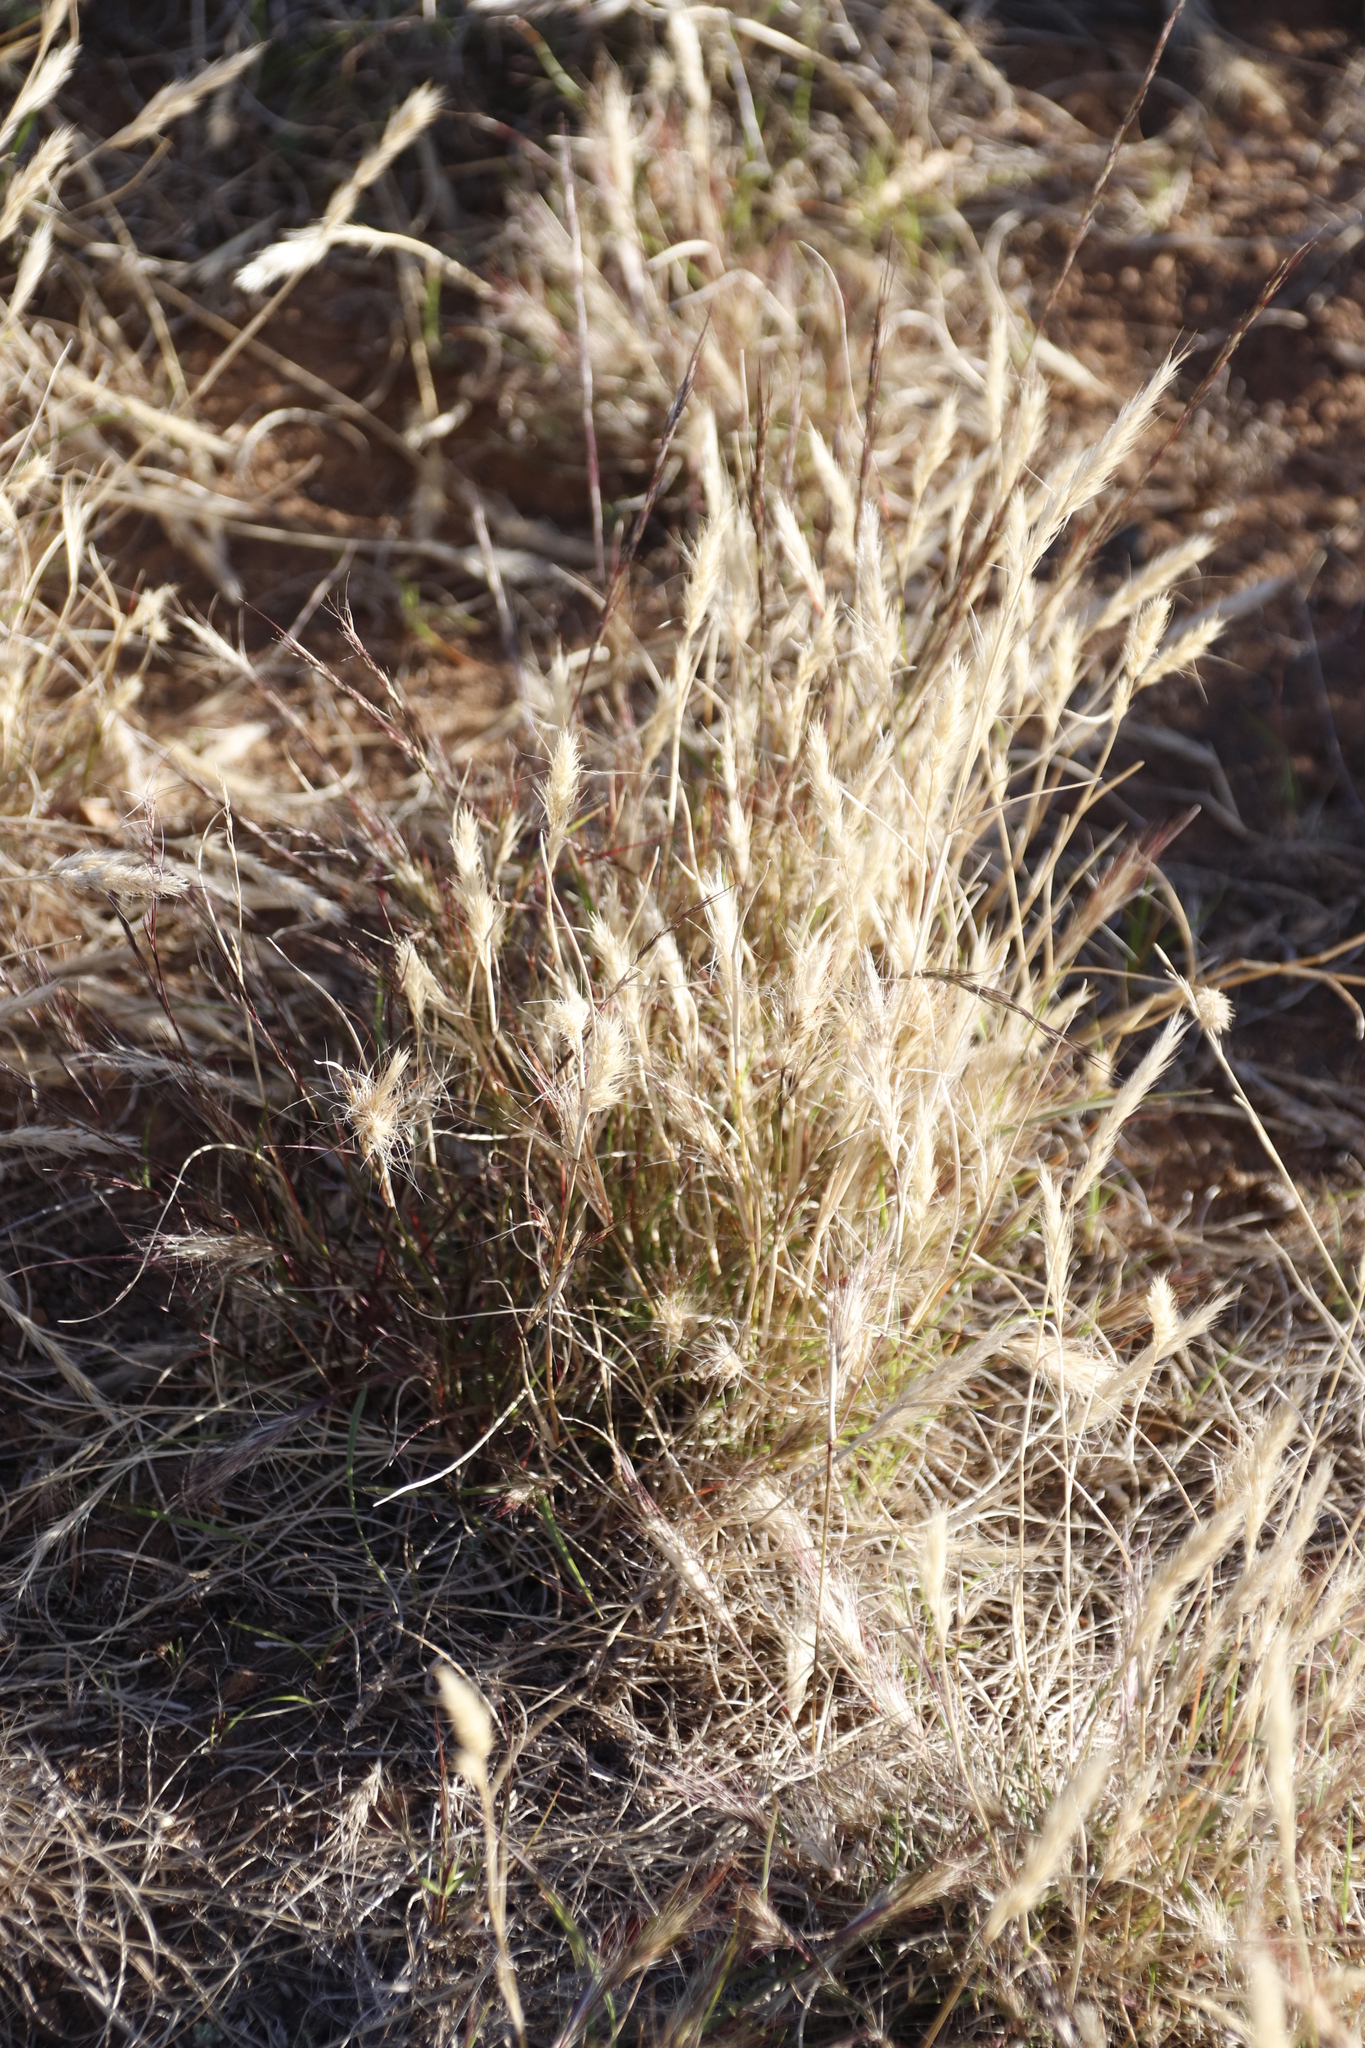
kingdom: Plantae
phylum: Tracheophyta
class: Liliopsida
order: Poales
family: Poaceae
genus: Aristida
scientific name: Aristida congesta
